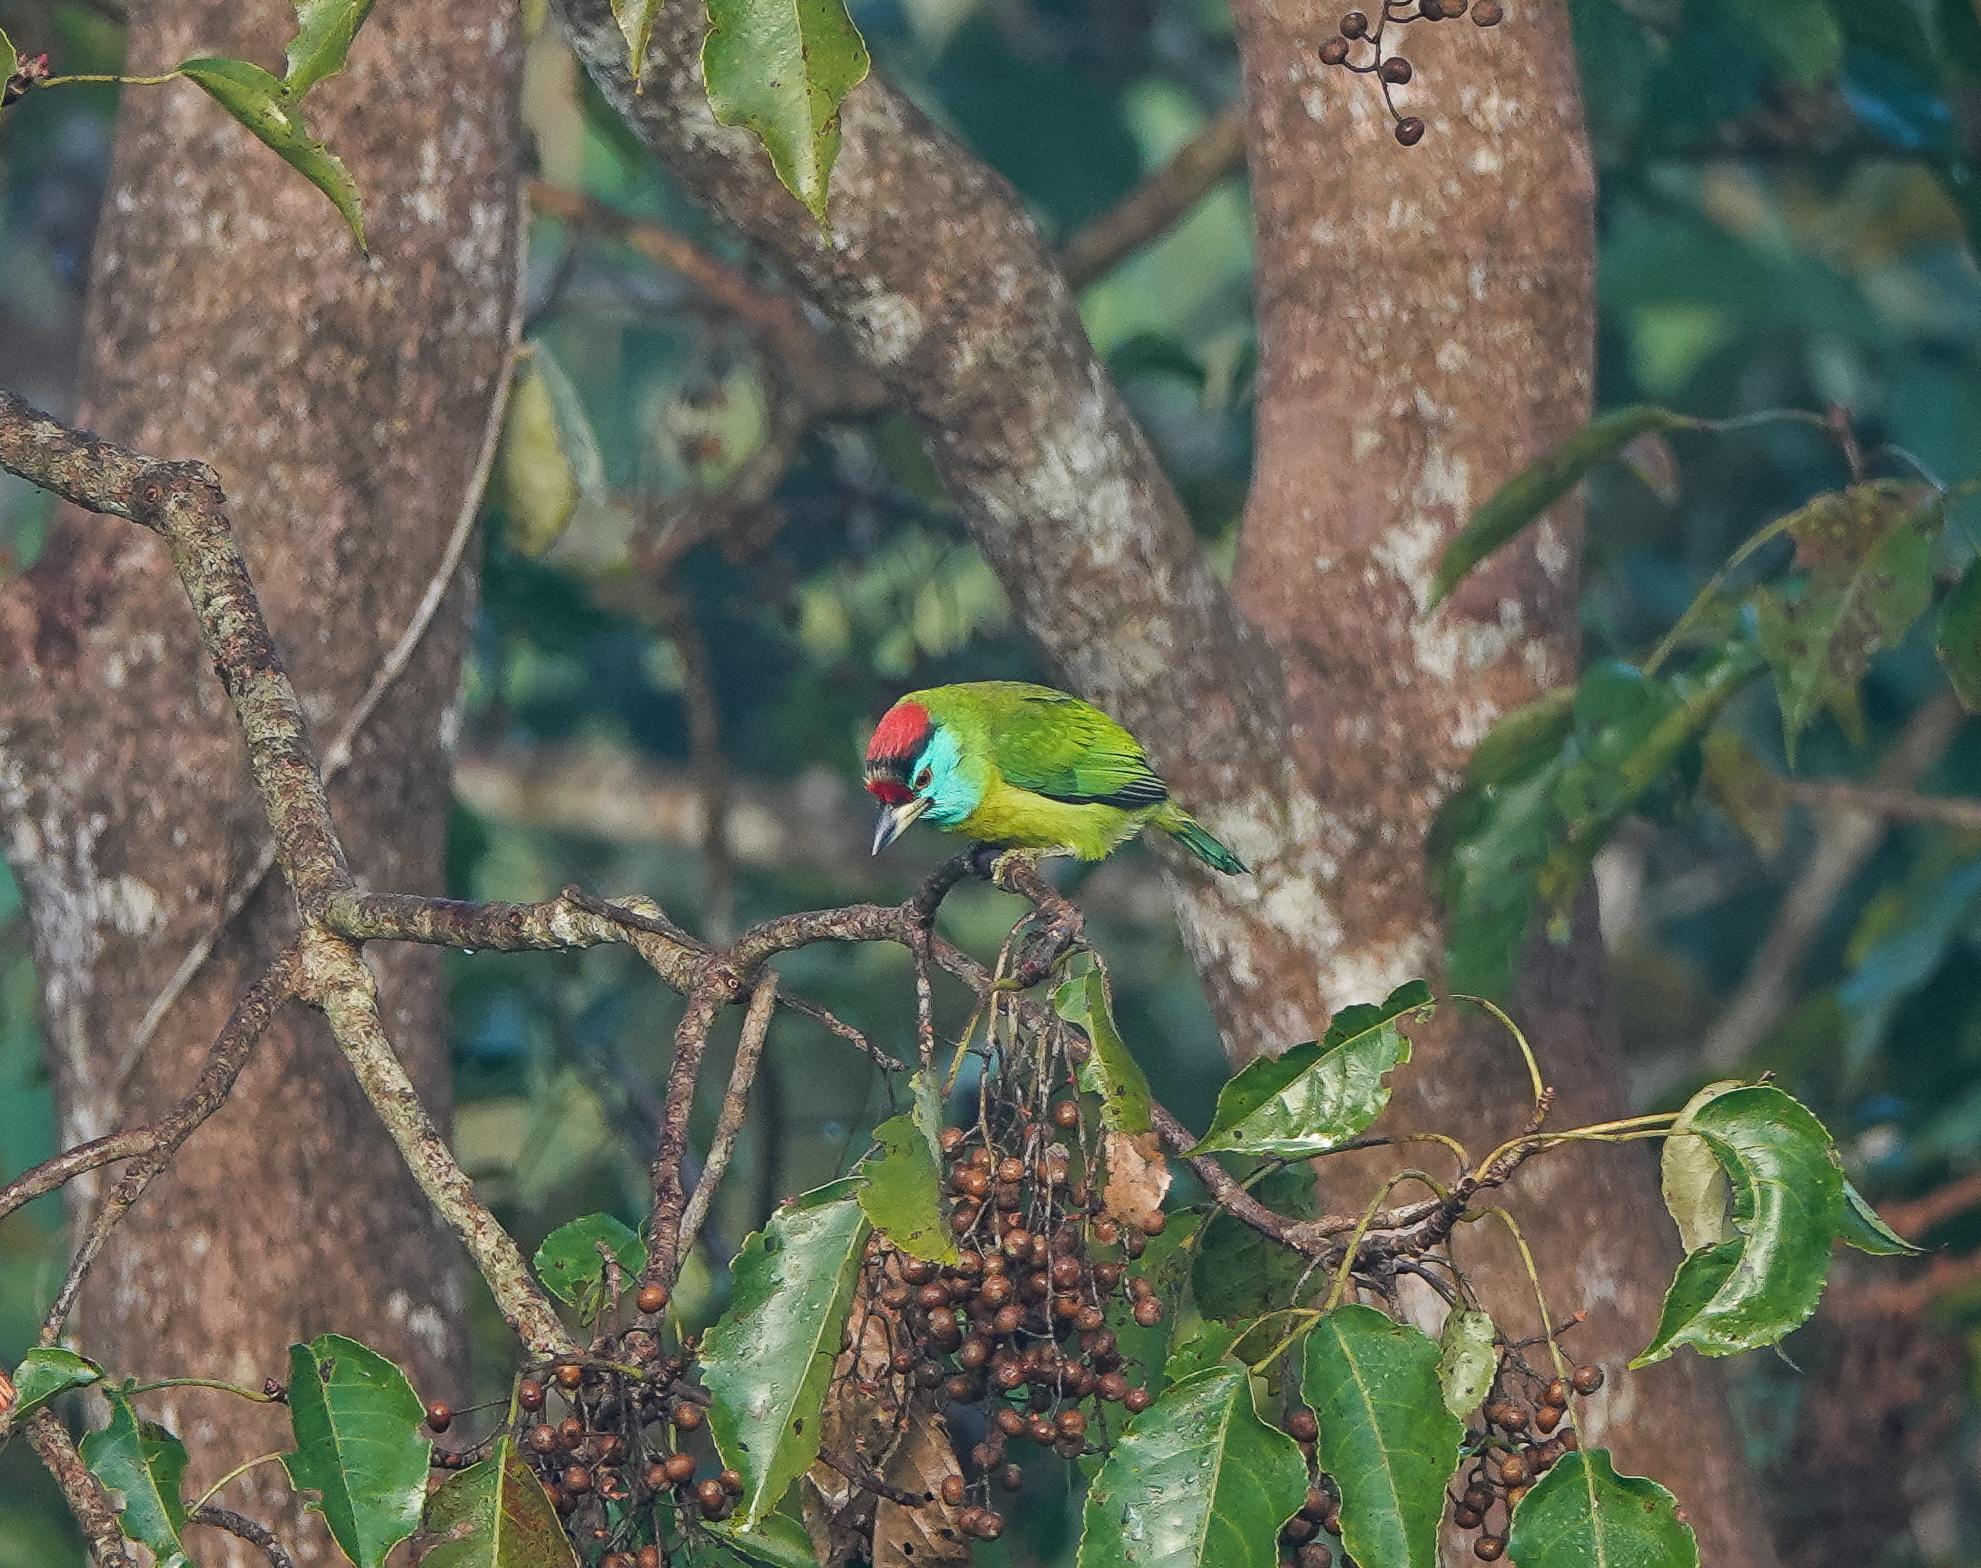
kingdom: Animalia
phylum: Chordata
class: Aves
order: Piciformes
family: Megalaimidae
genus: Psilopogon
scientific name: Psilopogon asiaticus
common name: Blue-throated barbet
